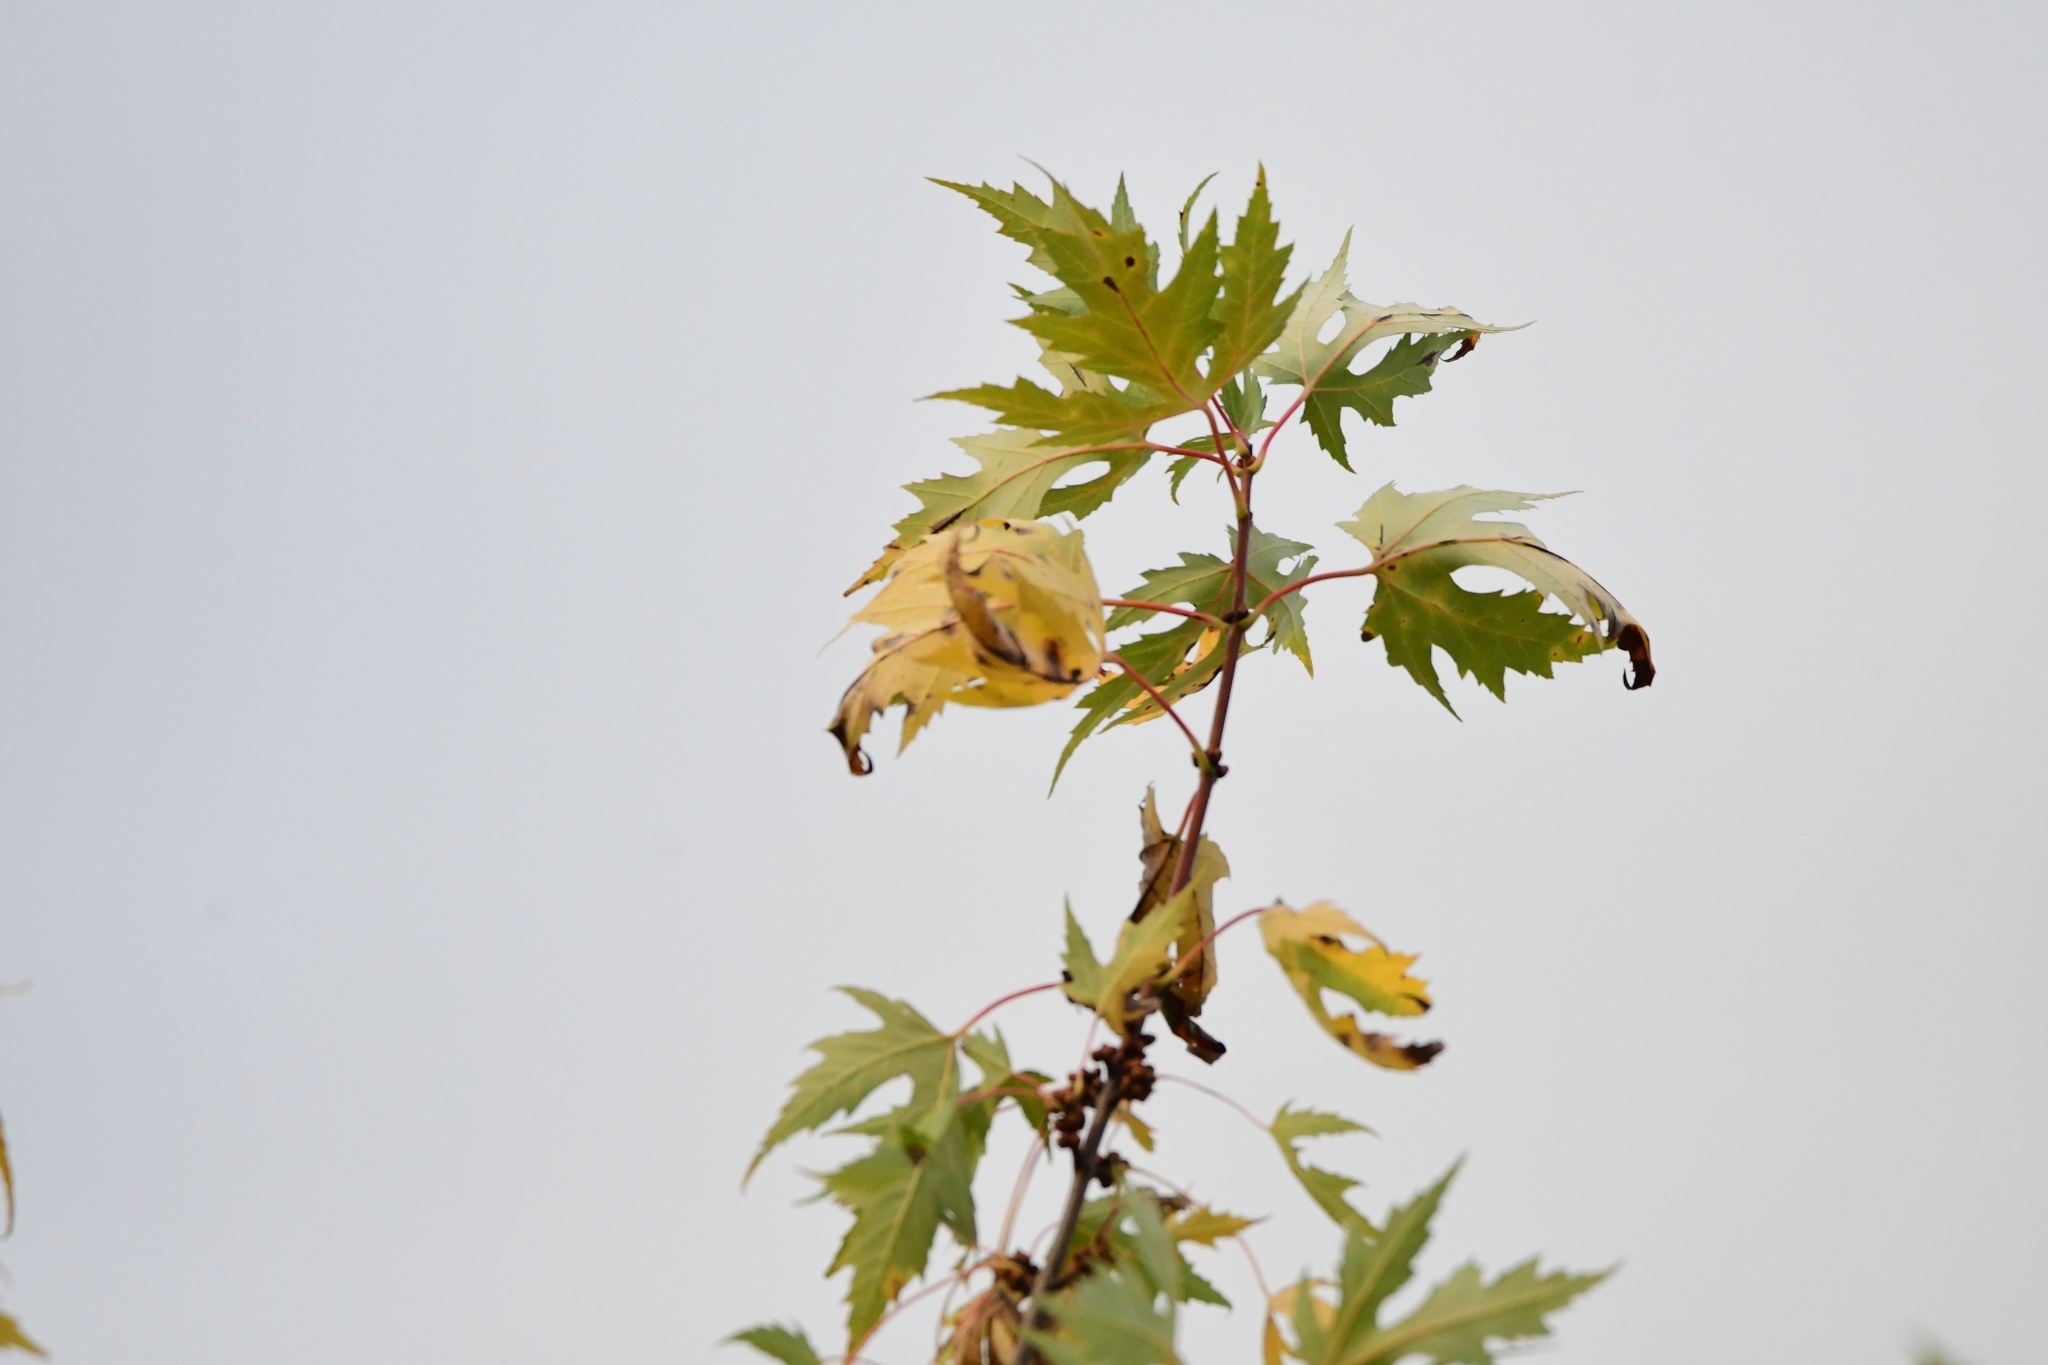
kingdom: Plantae
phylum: Tracheophyta
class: Magnoliopsida
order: Sapindales
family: Sapindaceae
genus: Acer
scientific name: Acer saccharinum
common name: Silver maple
